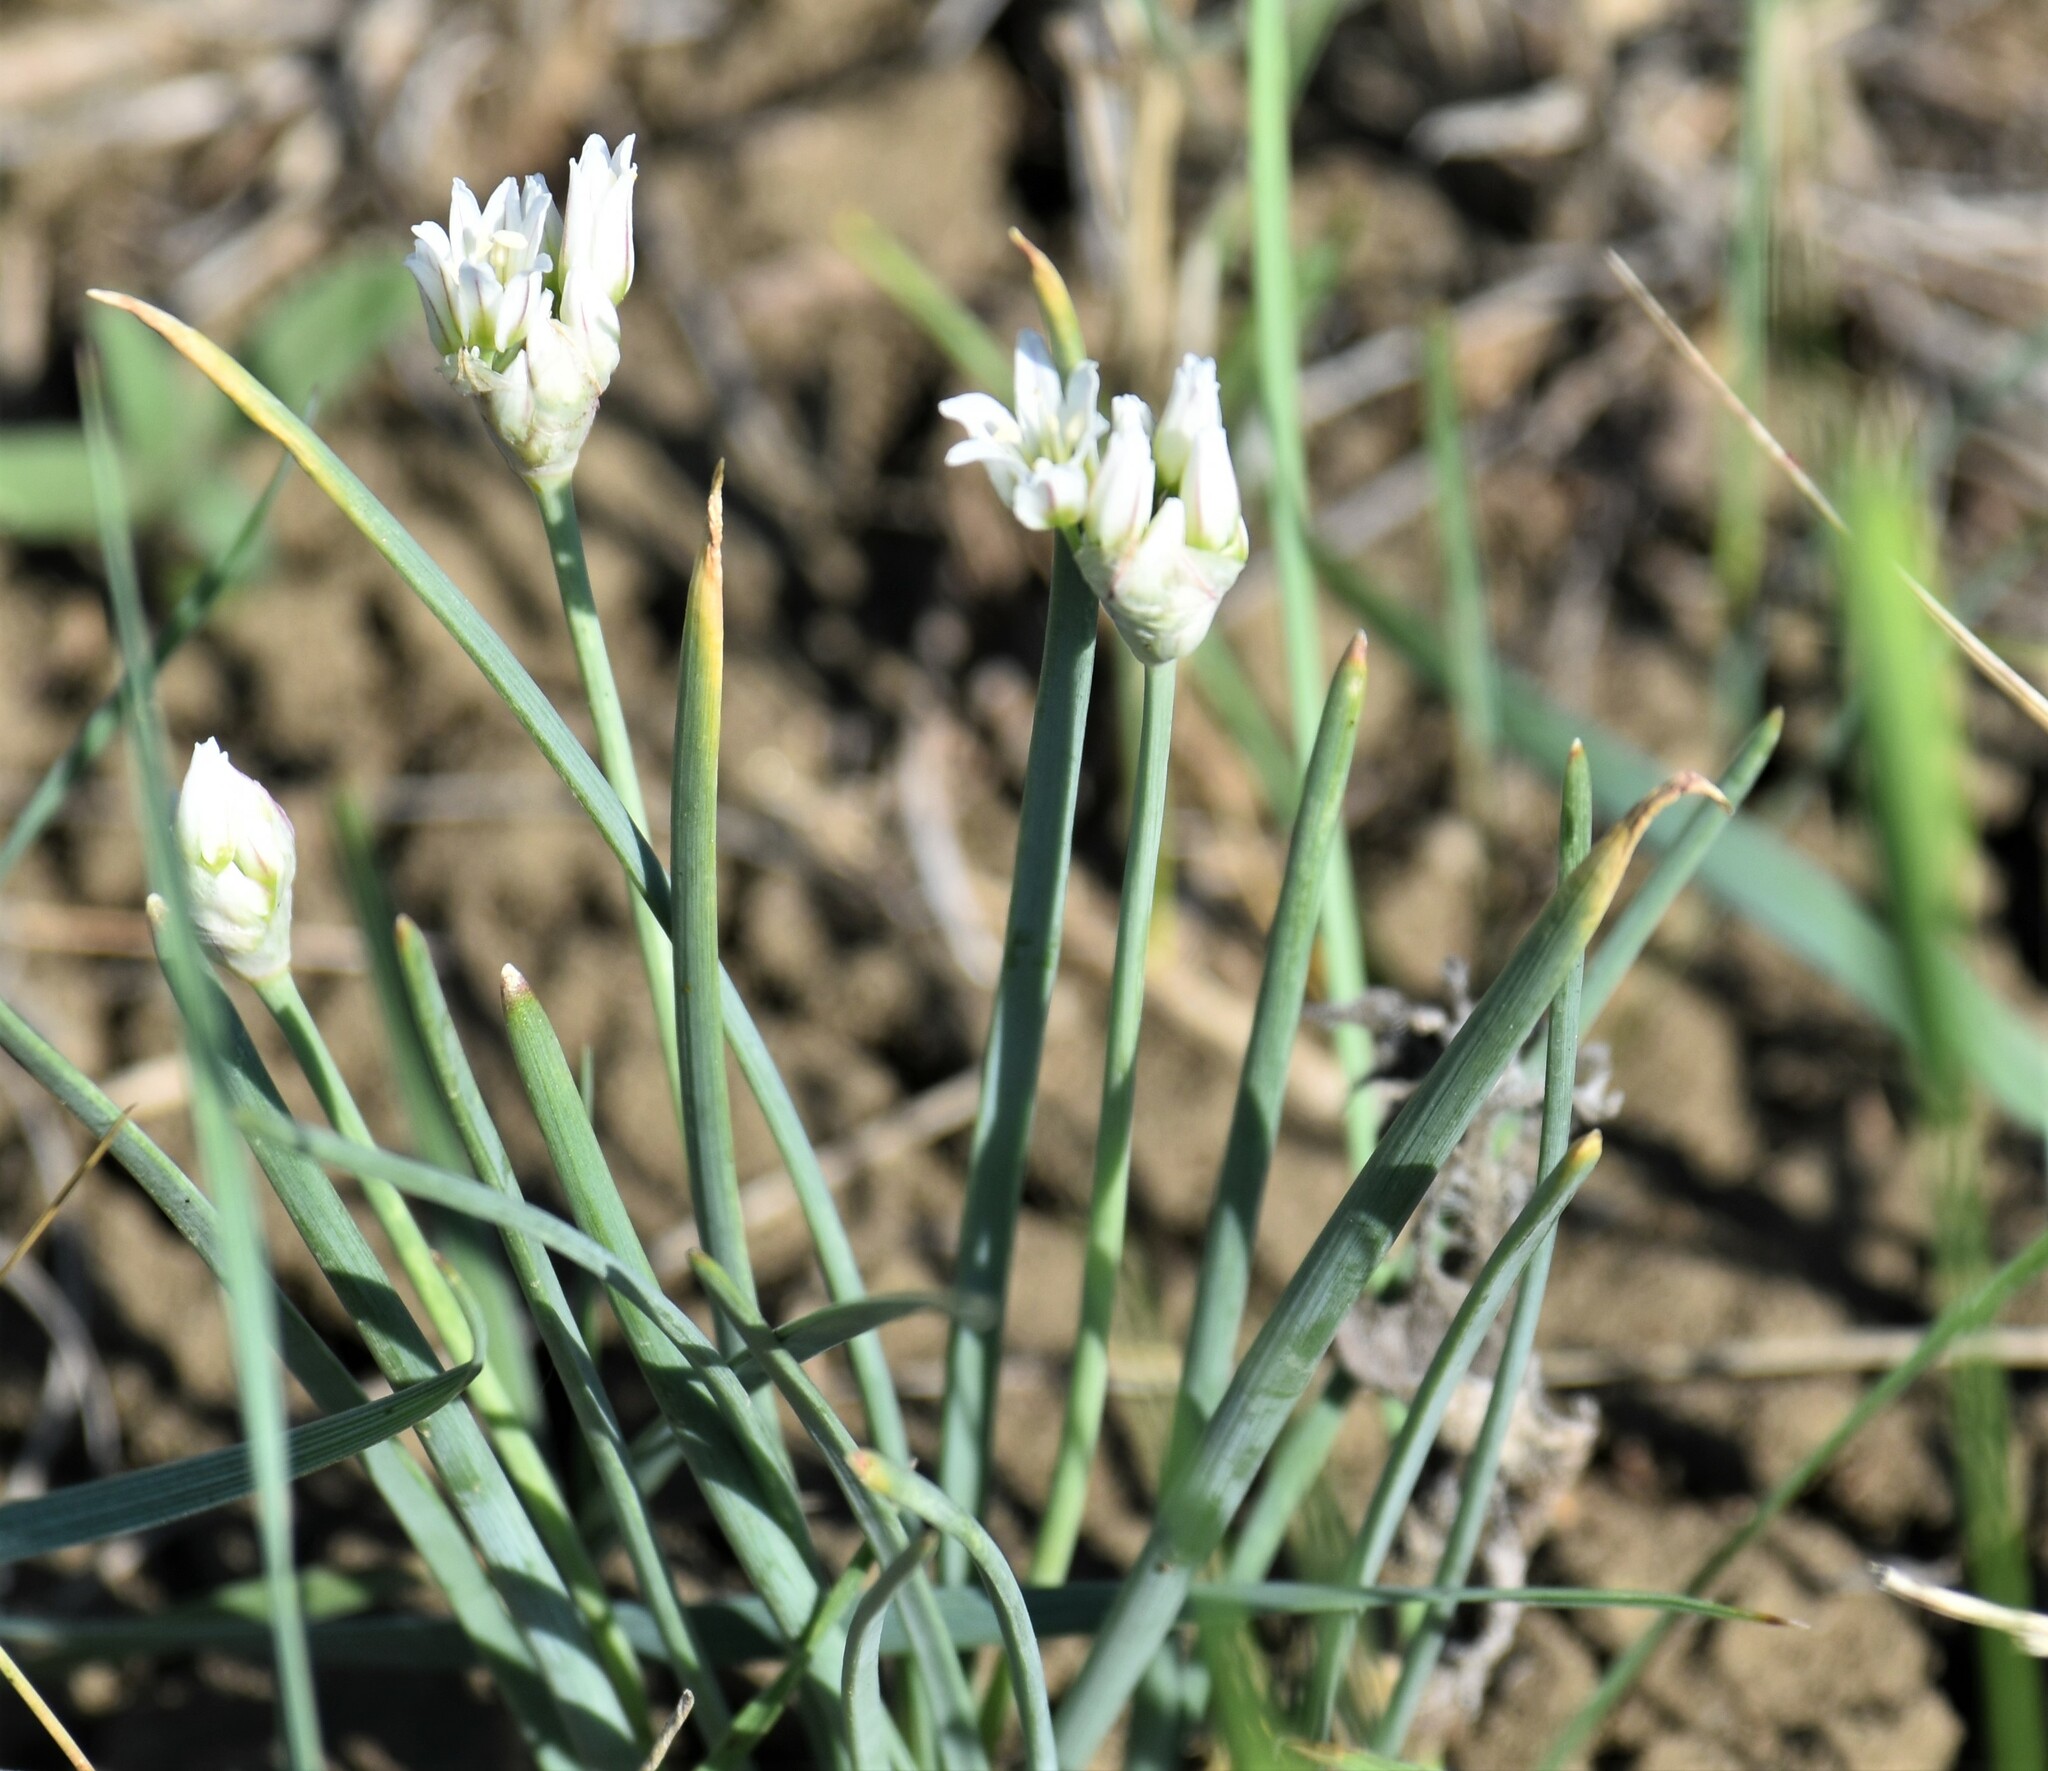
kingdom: Plantae
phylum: Tracheophyta
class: Liliopsida
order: Asparagales
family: Amaryllidaceae
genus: Allium
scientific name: Allium textile
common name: Prairie onion
